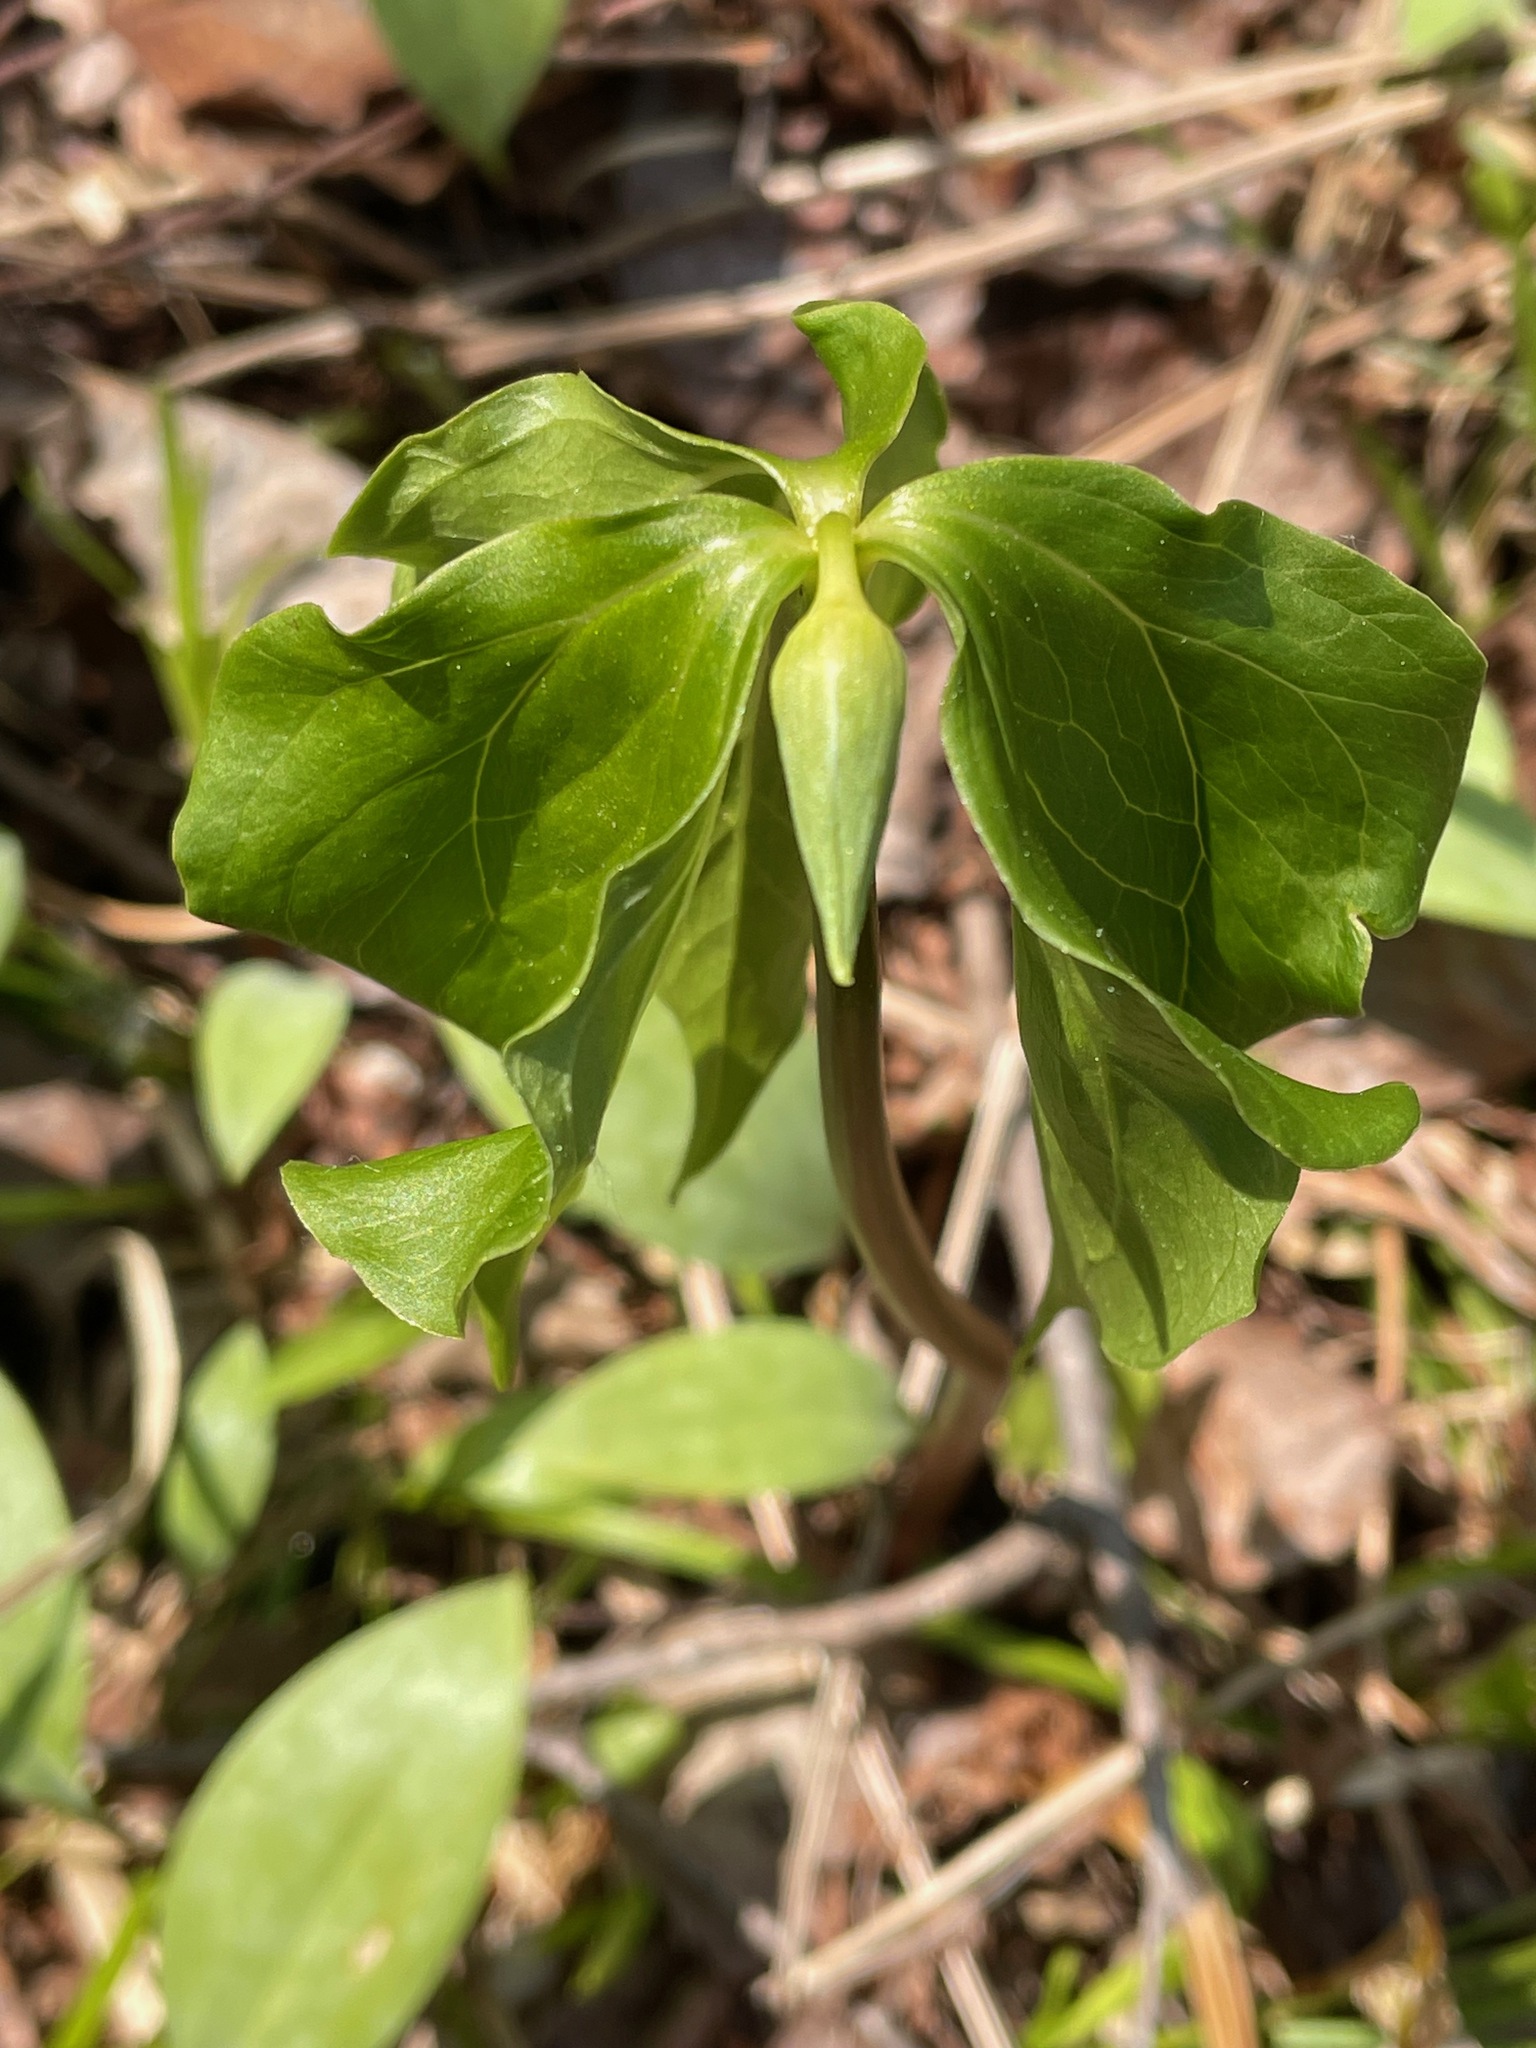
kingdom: Plantae
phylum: Tracheophyta
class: Liliopsida
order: Liliales
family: Melanthiaceae
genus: Trillium
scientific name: Trillium cernuum
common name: Nodding trillium
